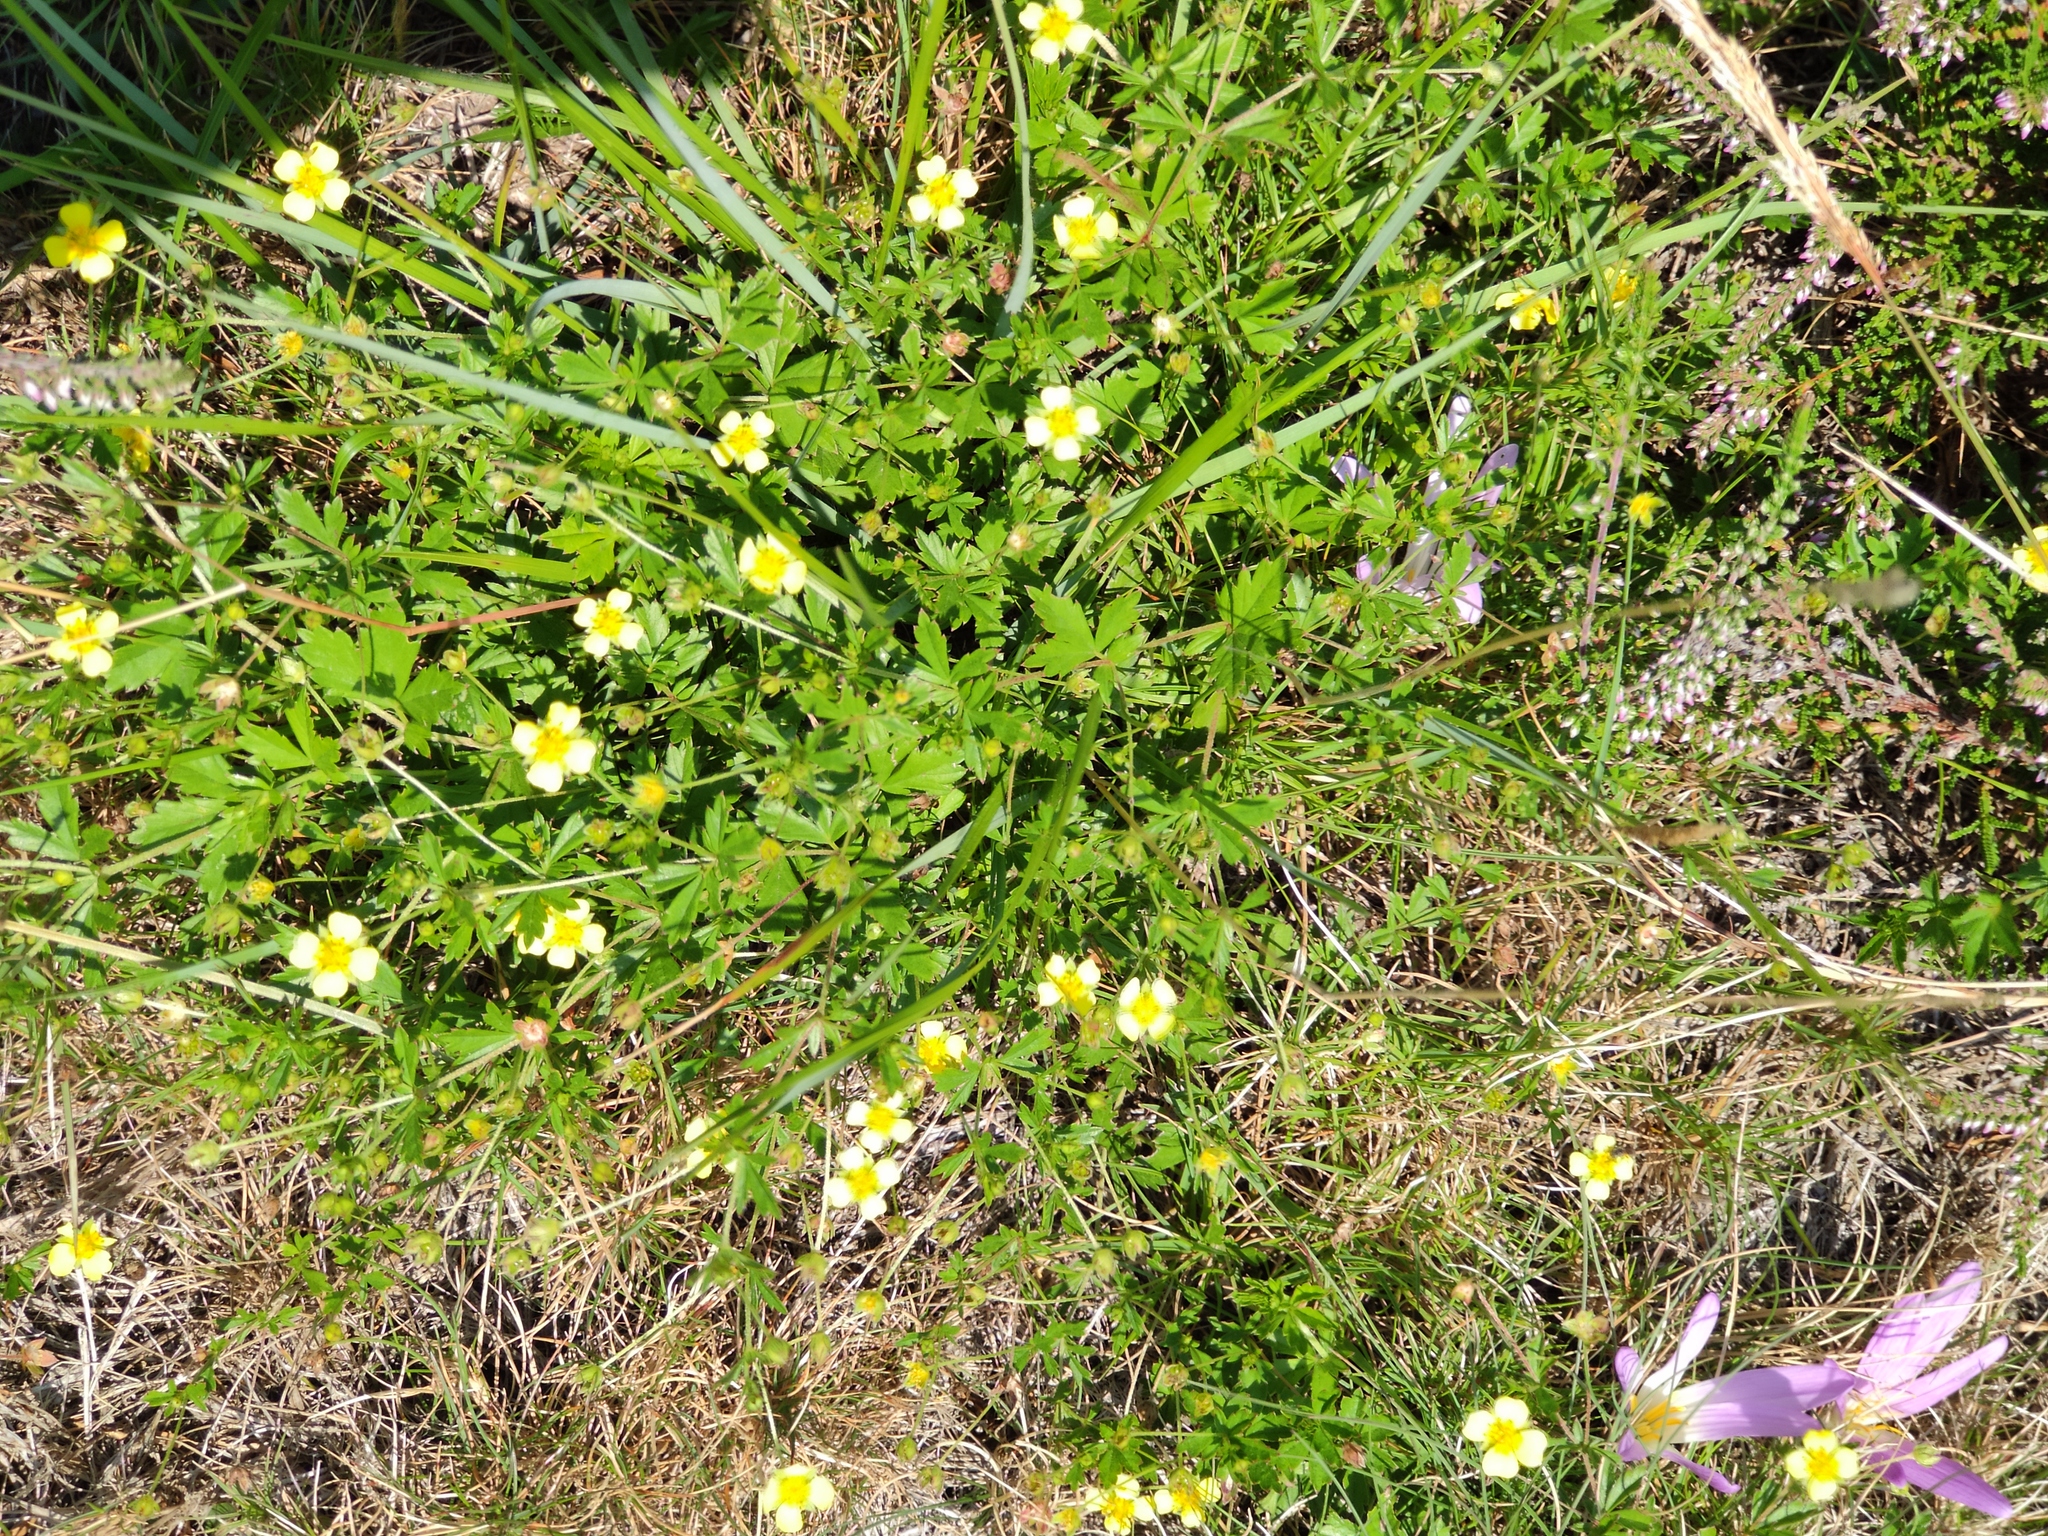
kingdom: Plantae
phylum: Tracheophyta
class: Magnoliopsida
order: Rosales
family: Rosaceae
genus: Potentilla
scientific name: Potentilla erecta
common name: Tormentil
